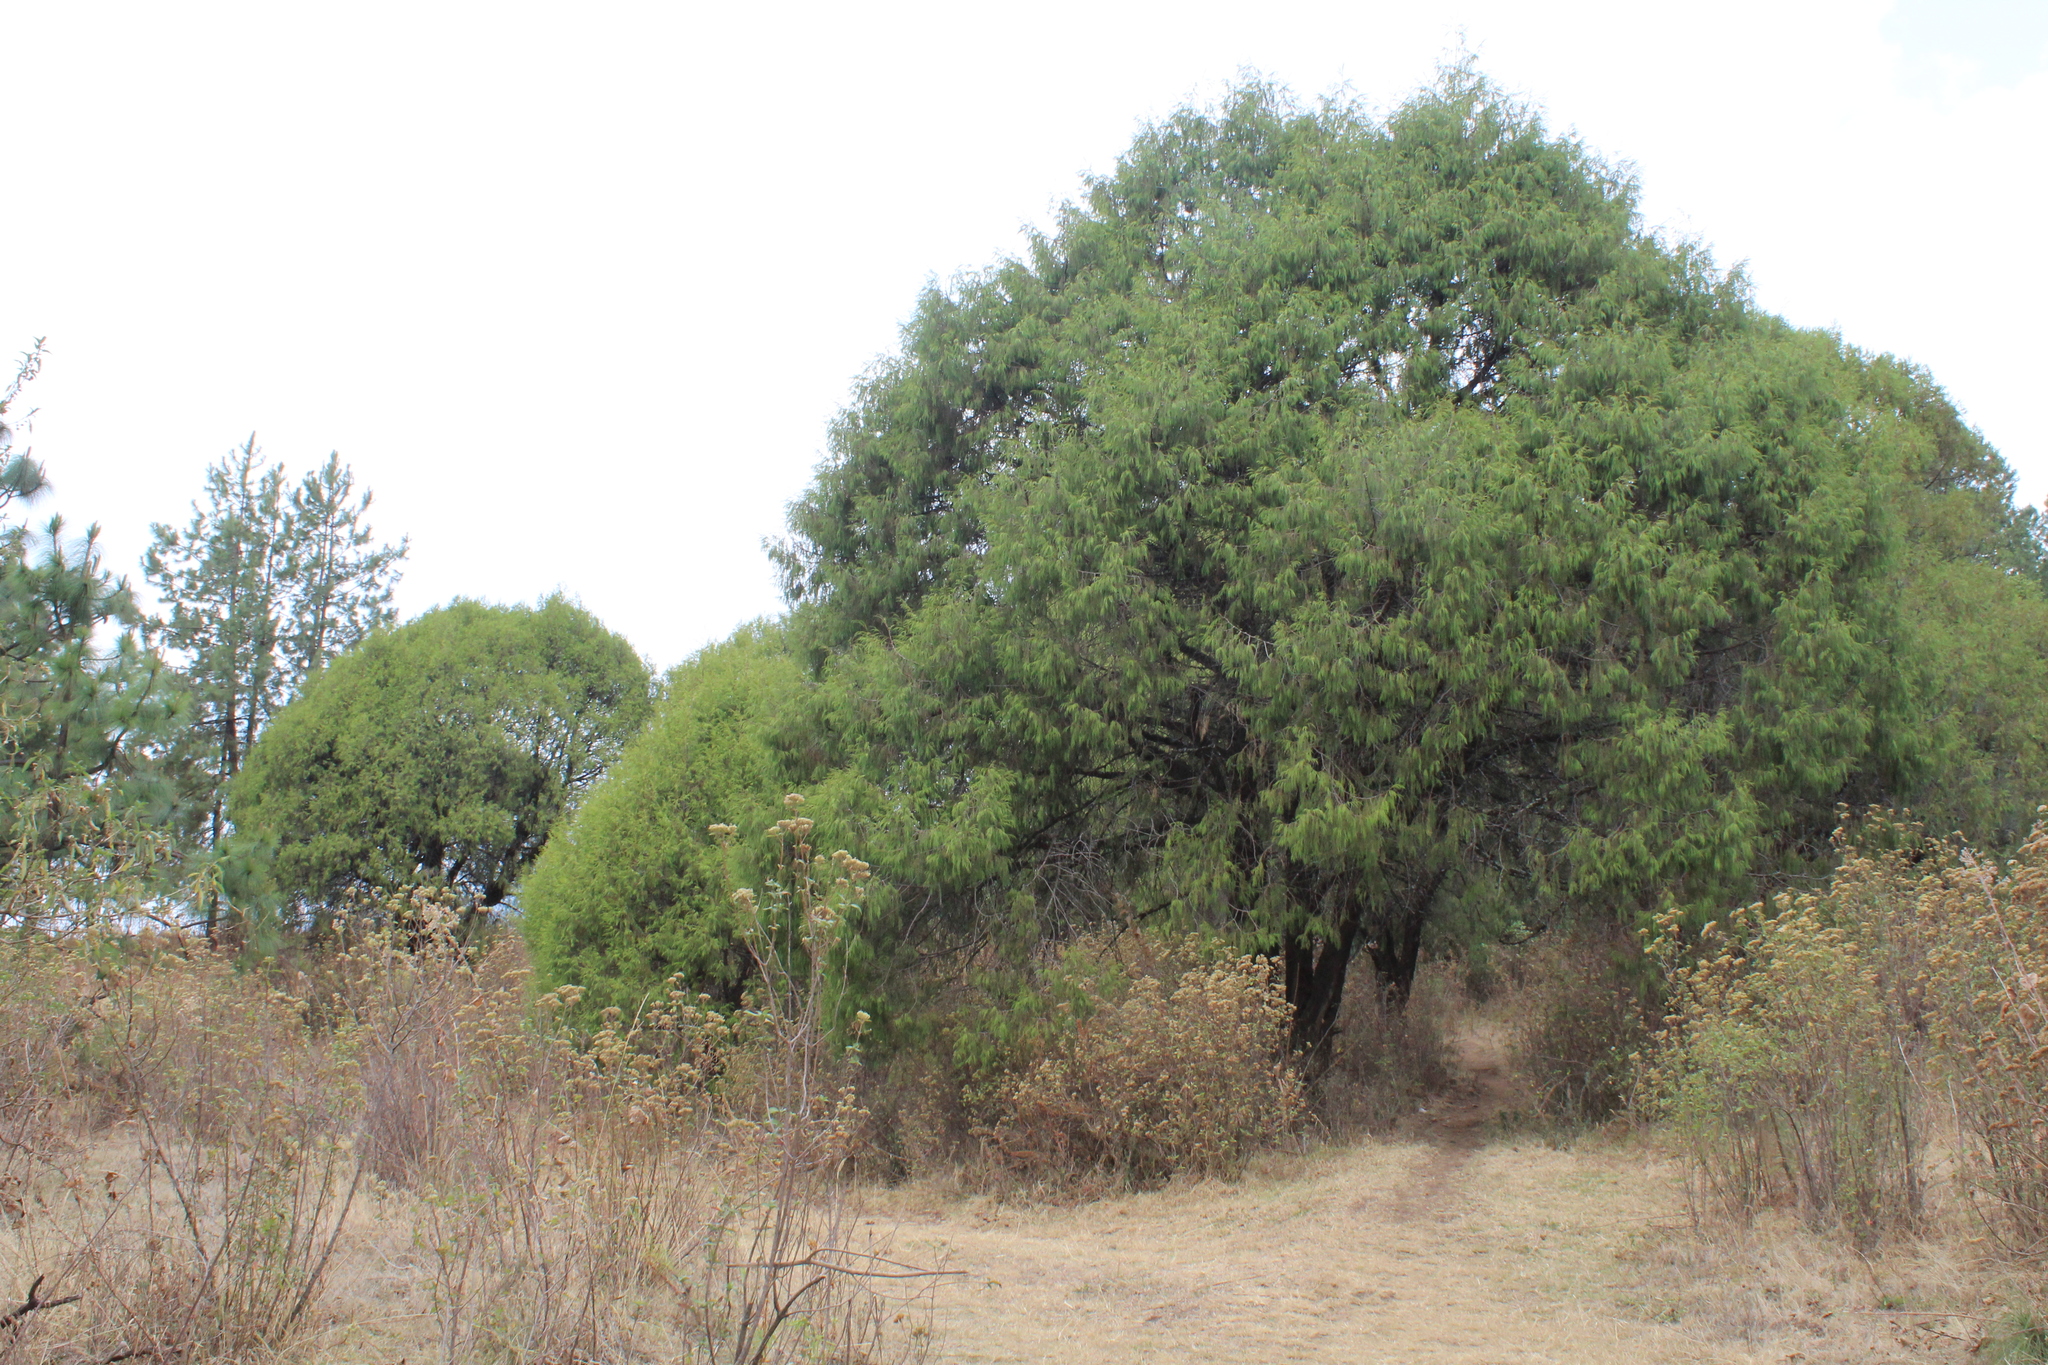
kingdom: Plantae
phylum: Tracheophyta
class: Pinopsida
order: Pinales
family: Cupressaceae
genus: Juniperus
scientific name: Juniperus flaccida
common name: Drooping juniper
